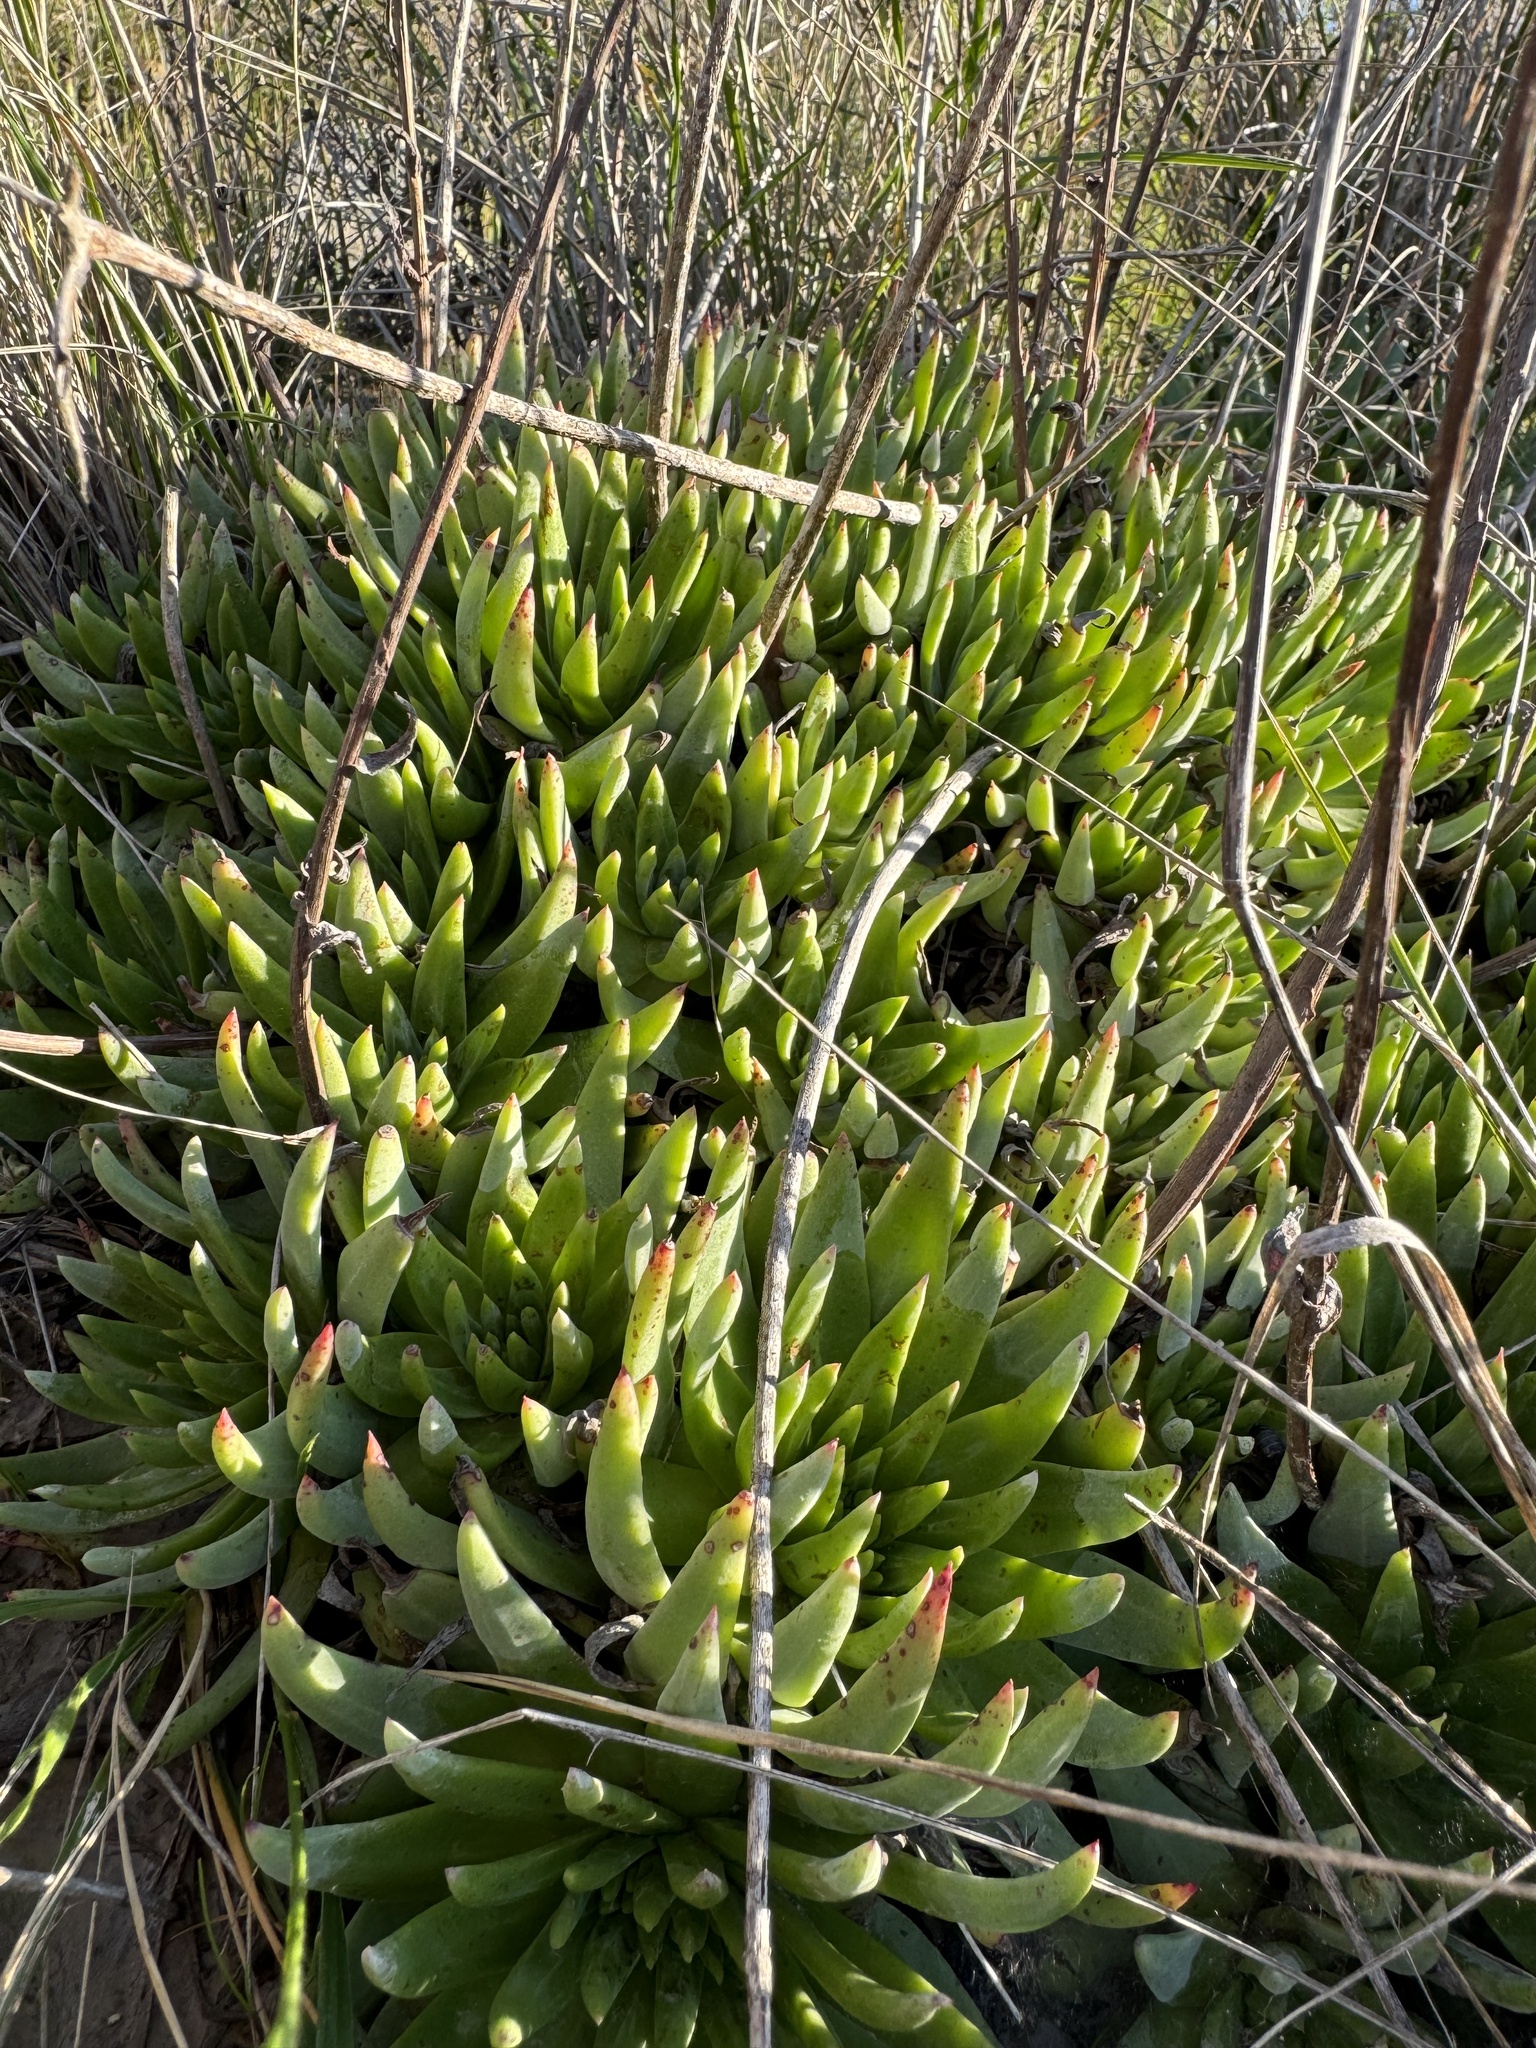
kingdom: Plantae
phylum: Tracheophyta
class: Magnoliopsida
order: Saxifragales
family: Crassulaceae
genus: Dudleya
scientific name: Dudleya virens
